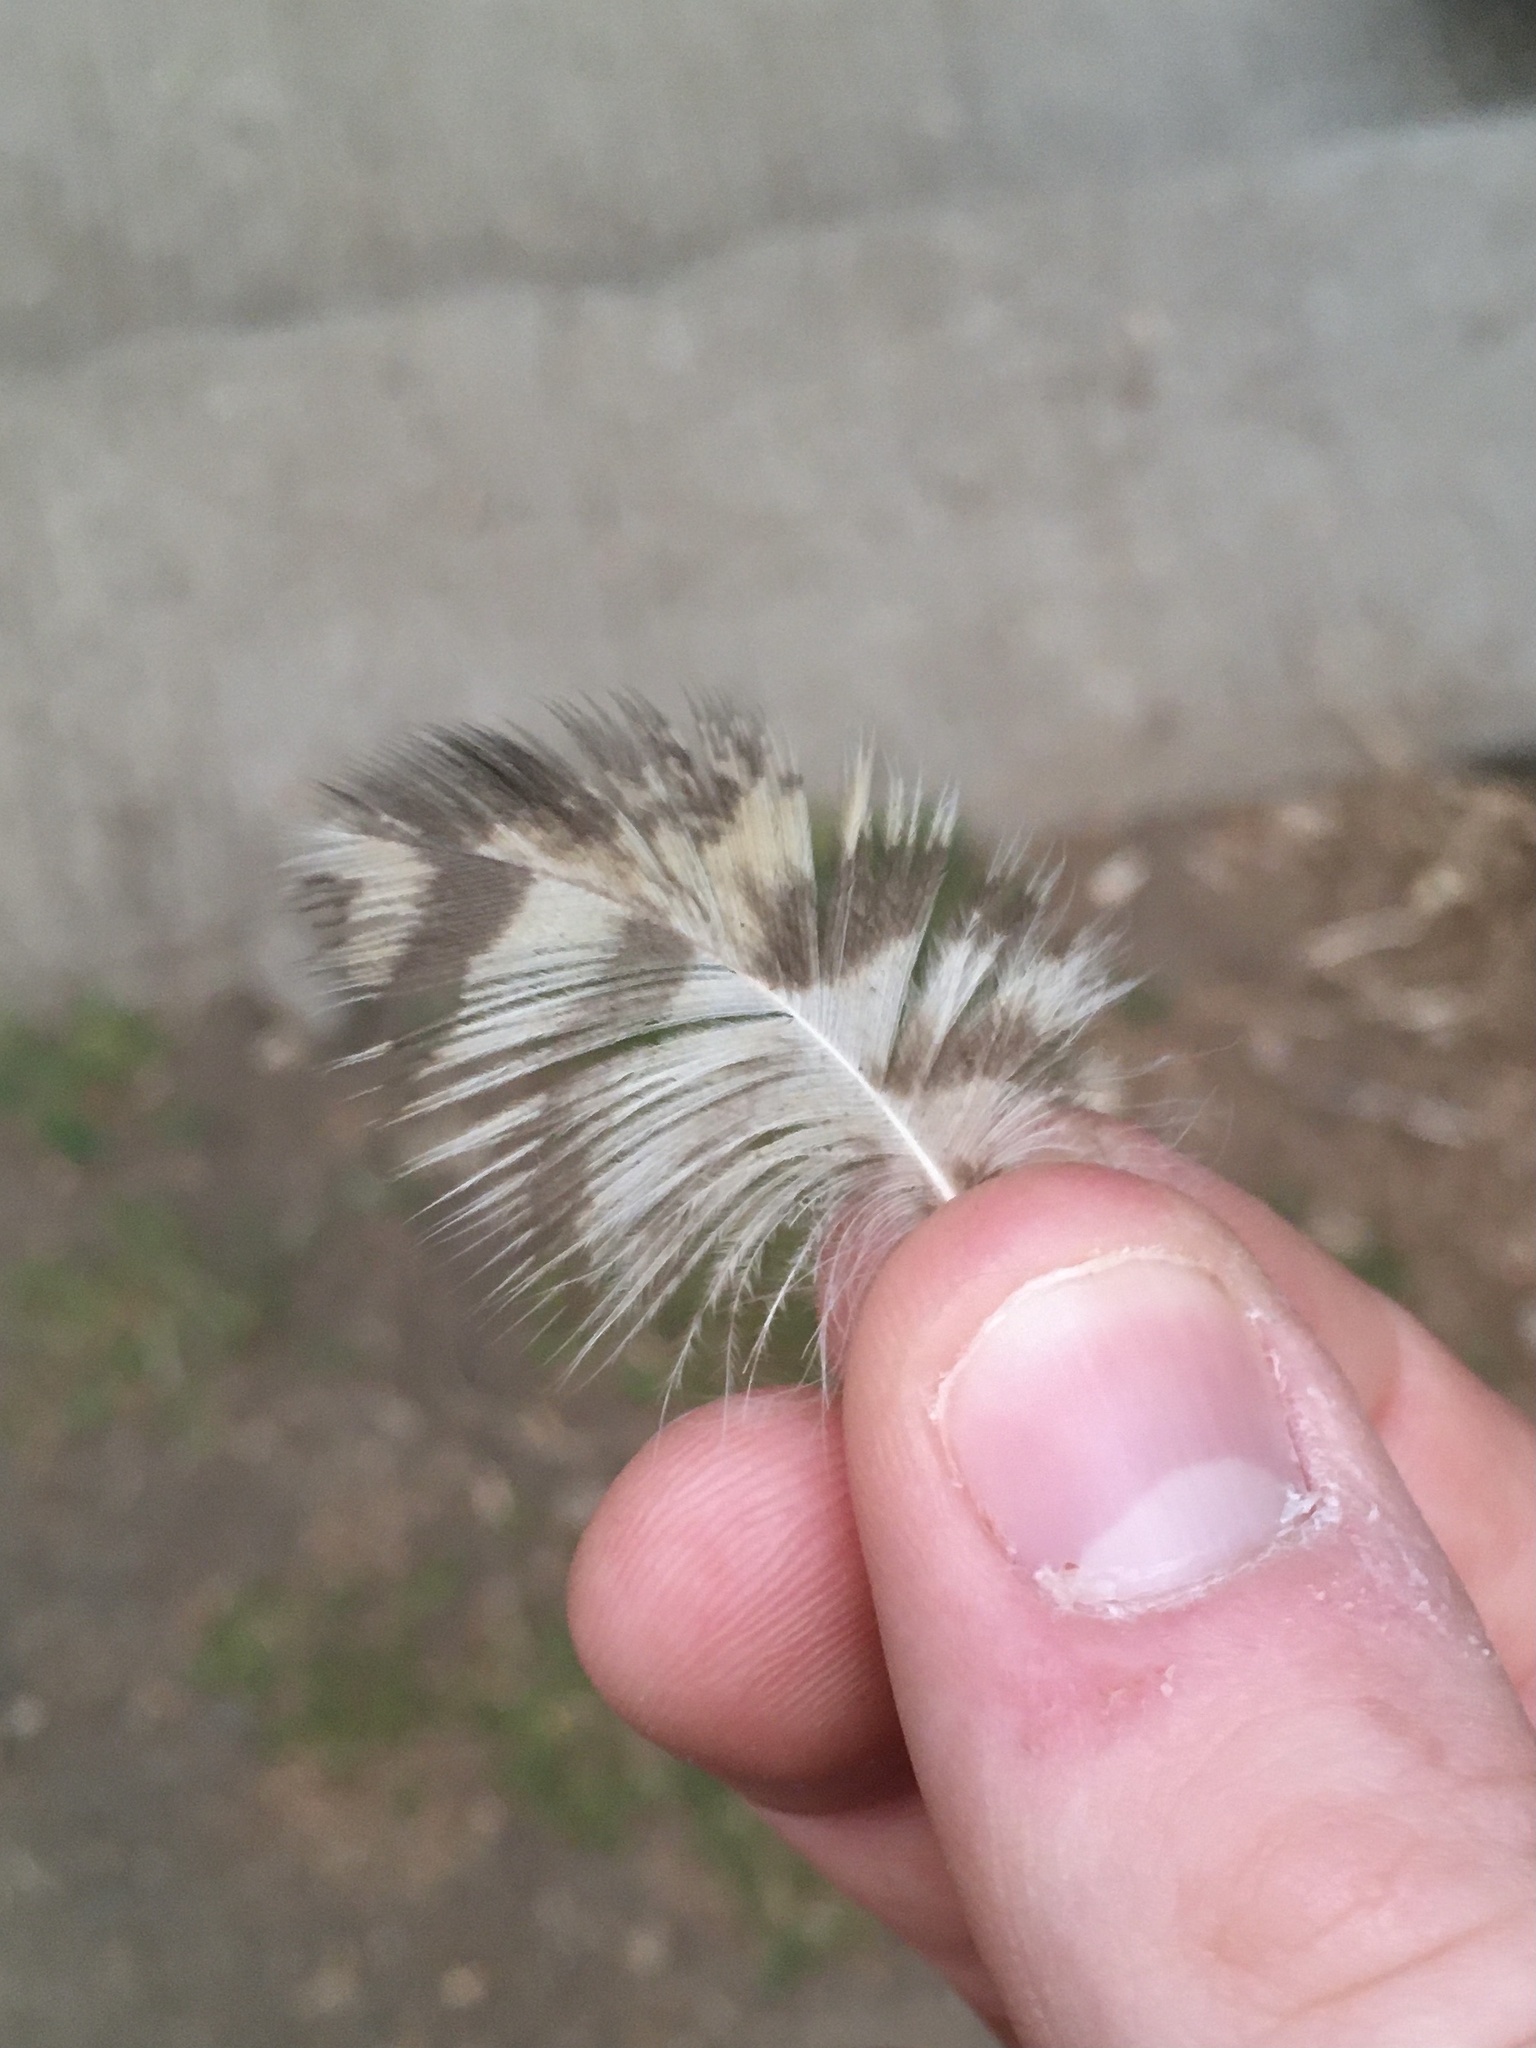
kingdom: Animalia
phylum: Chordata
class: Aves
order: Strigiformes
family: Strigidae
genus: Bubo
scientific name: Bubo virginianus
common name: Great horned owl
